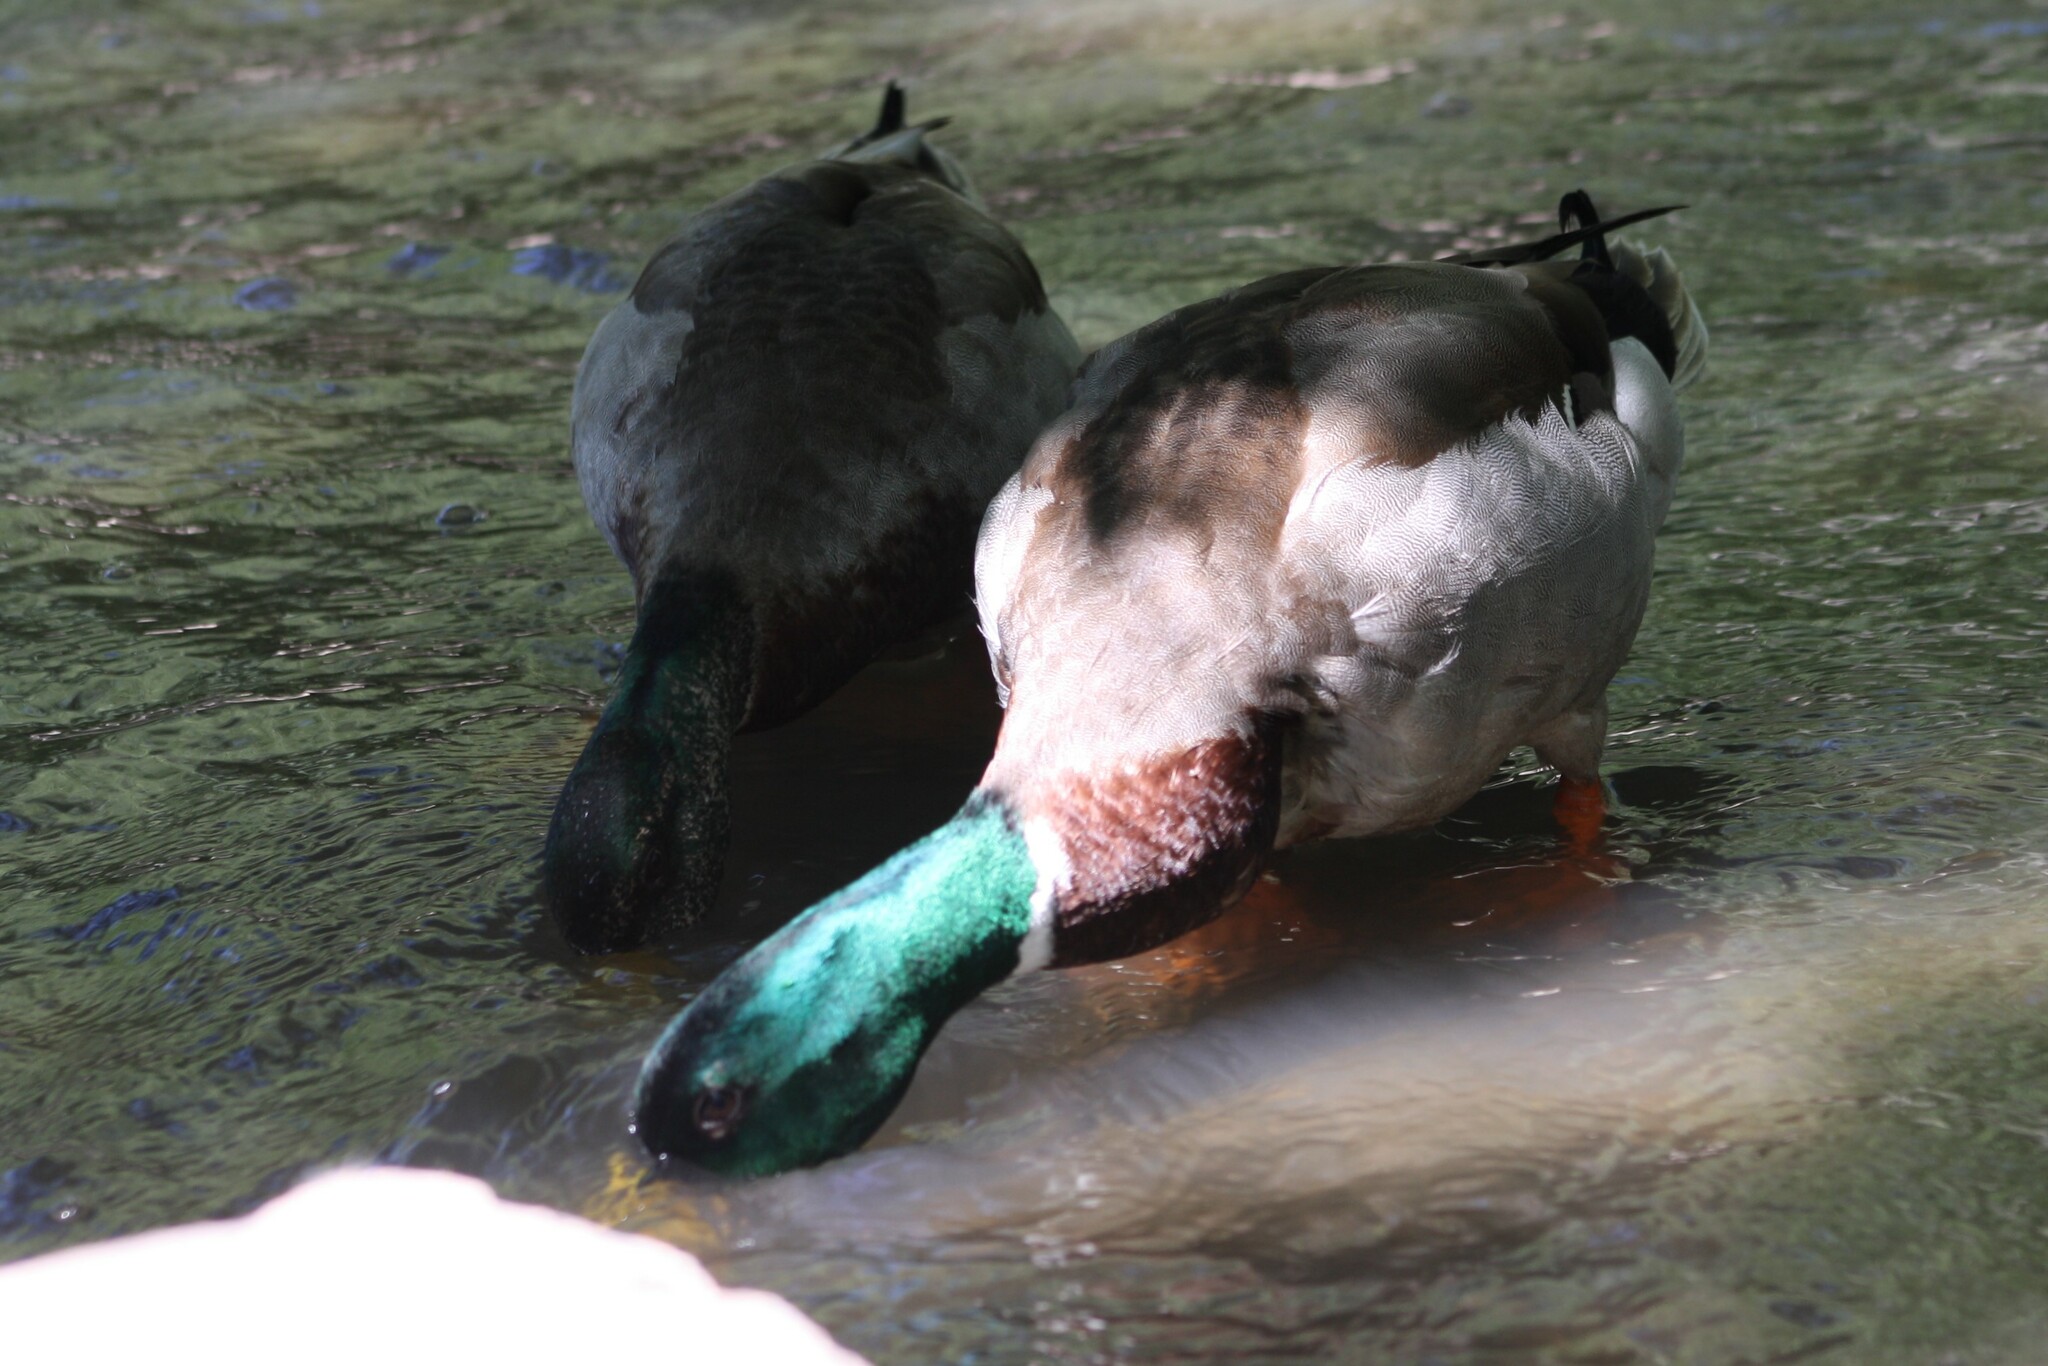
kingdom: Animalia
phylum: Chordata
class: Aves
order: Anseriformes
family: Anatidae
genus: Anas
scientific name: Anas platyrhynchos
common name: Mallard
